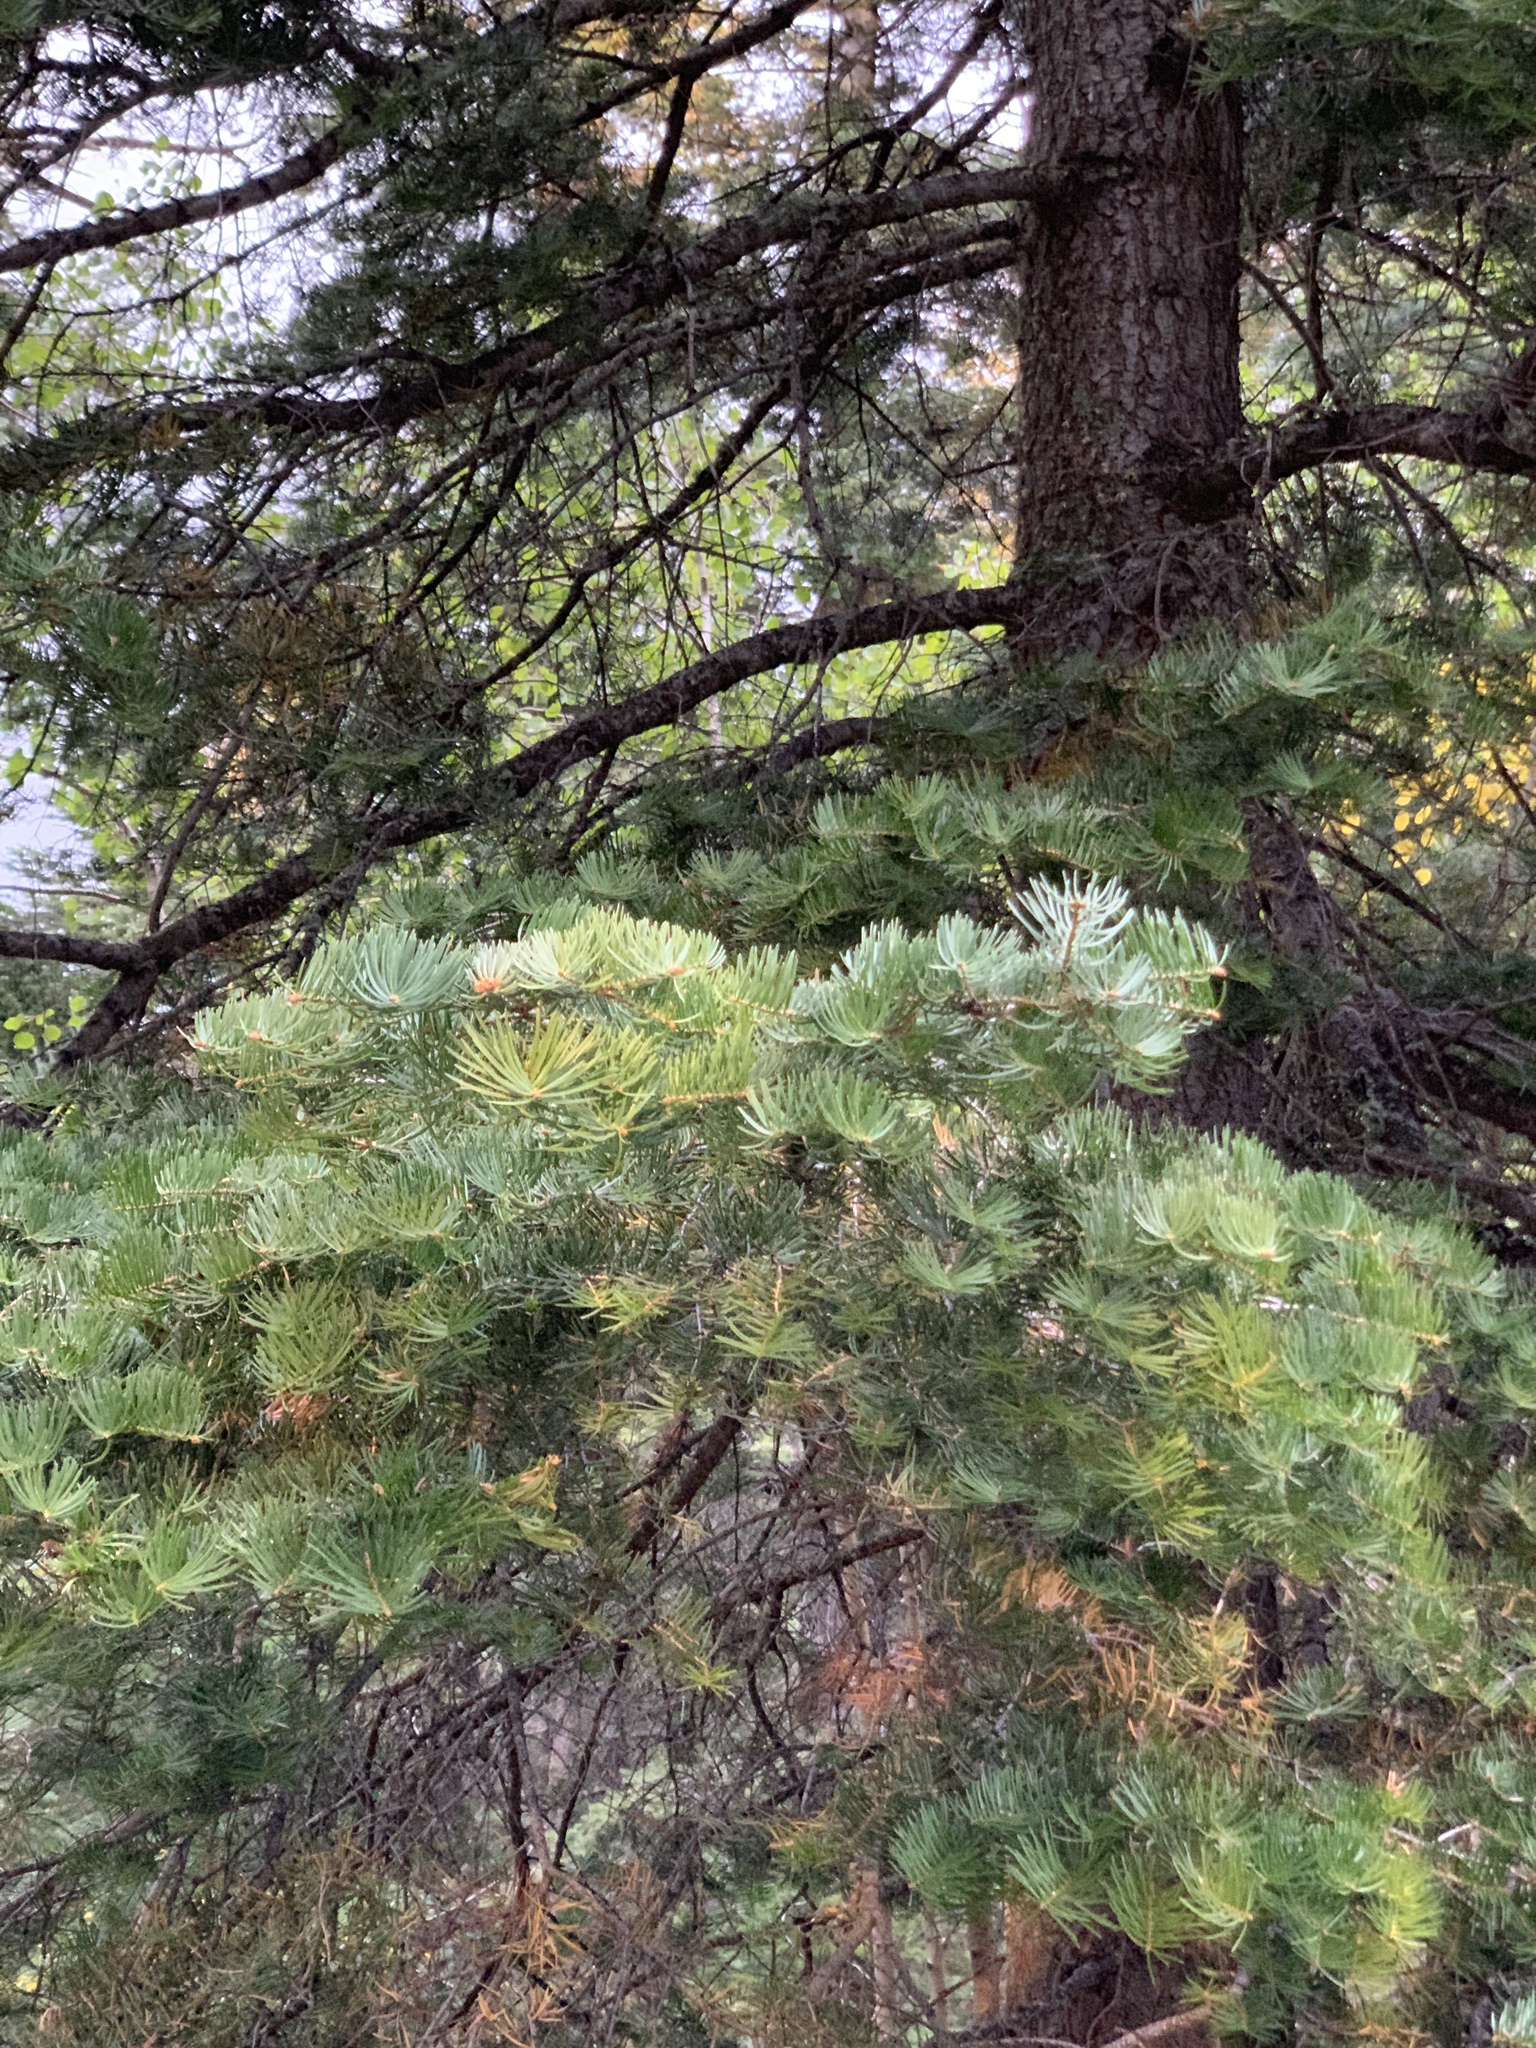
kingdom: Plantae
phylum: Tracheophyta
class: Pinopsida
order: Pinales
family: Pinaceae
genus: Abies
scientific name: Abies concolor
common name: Colorado fir
